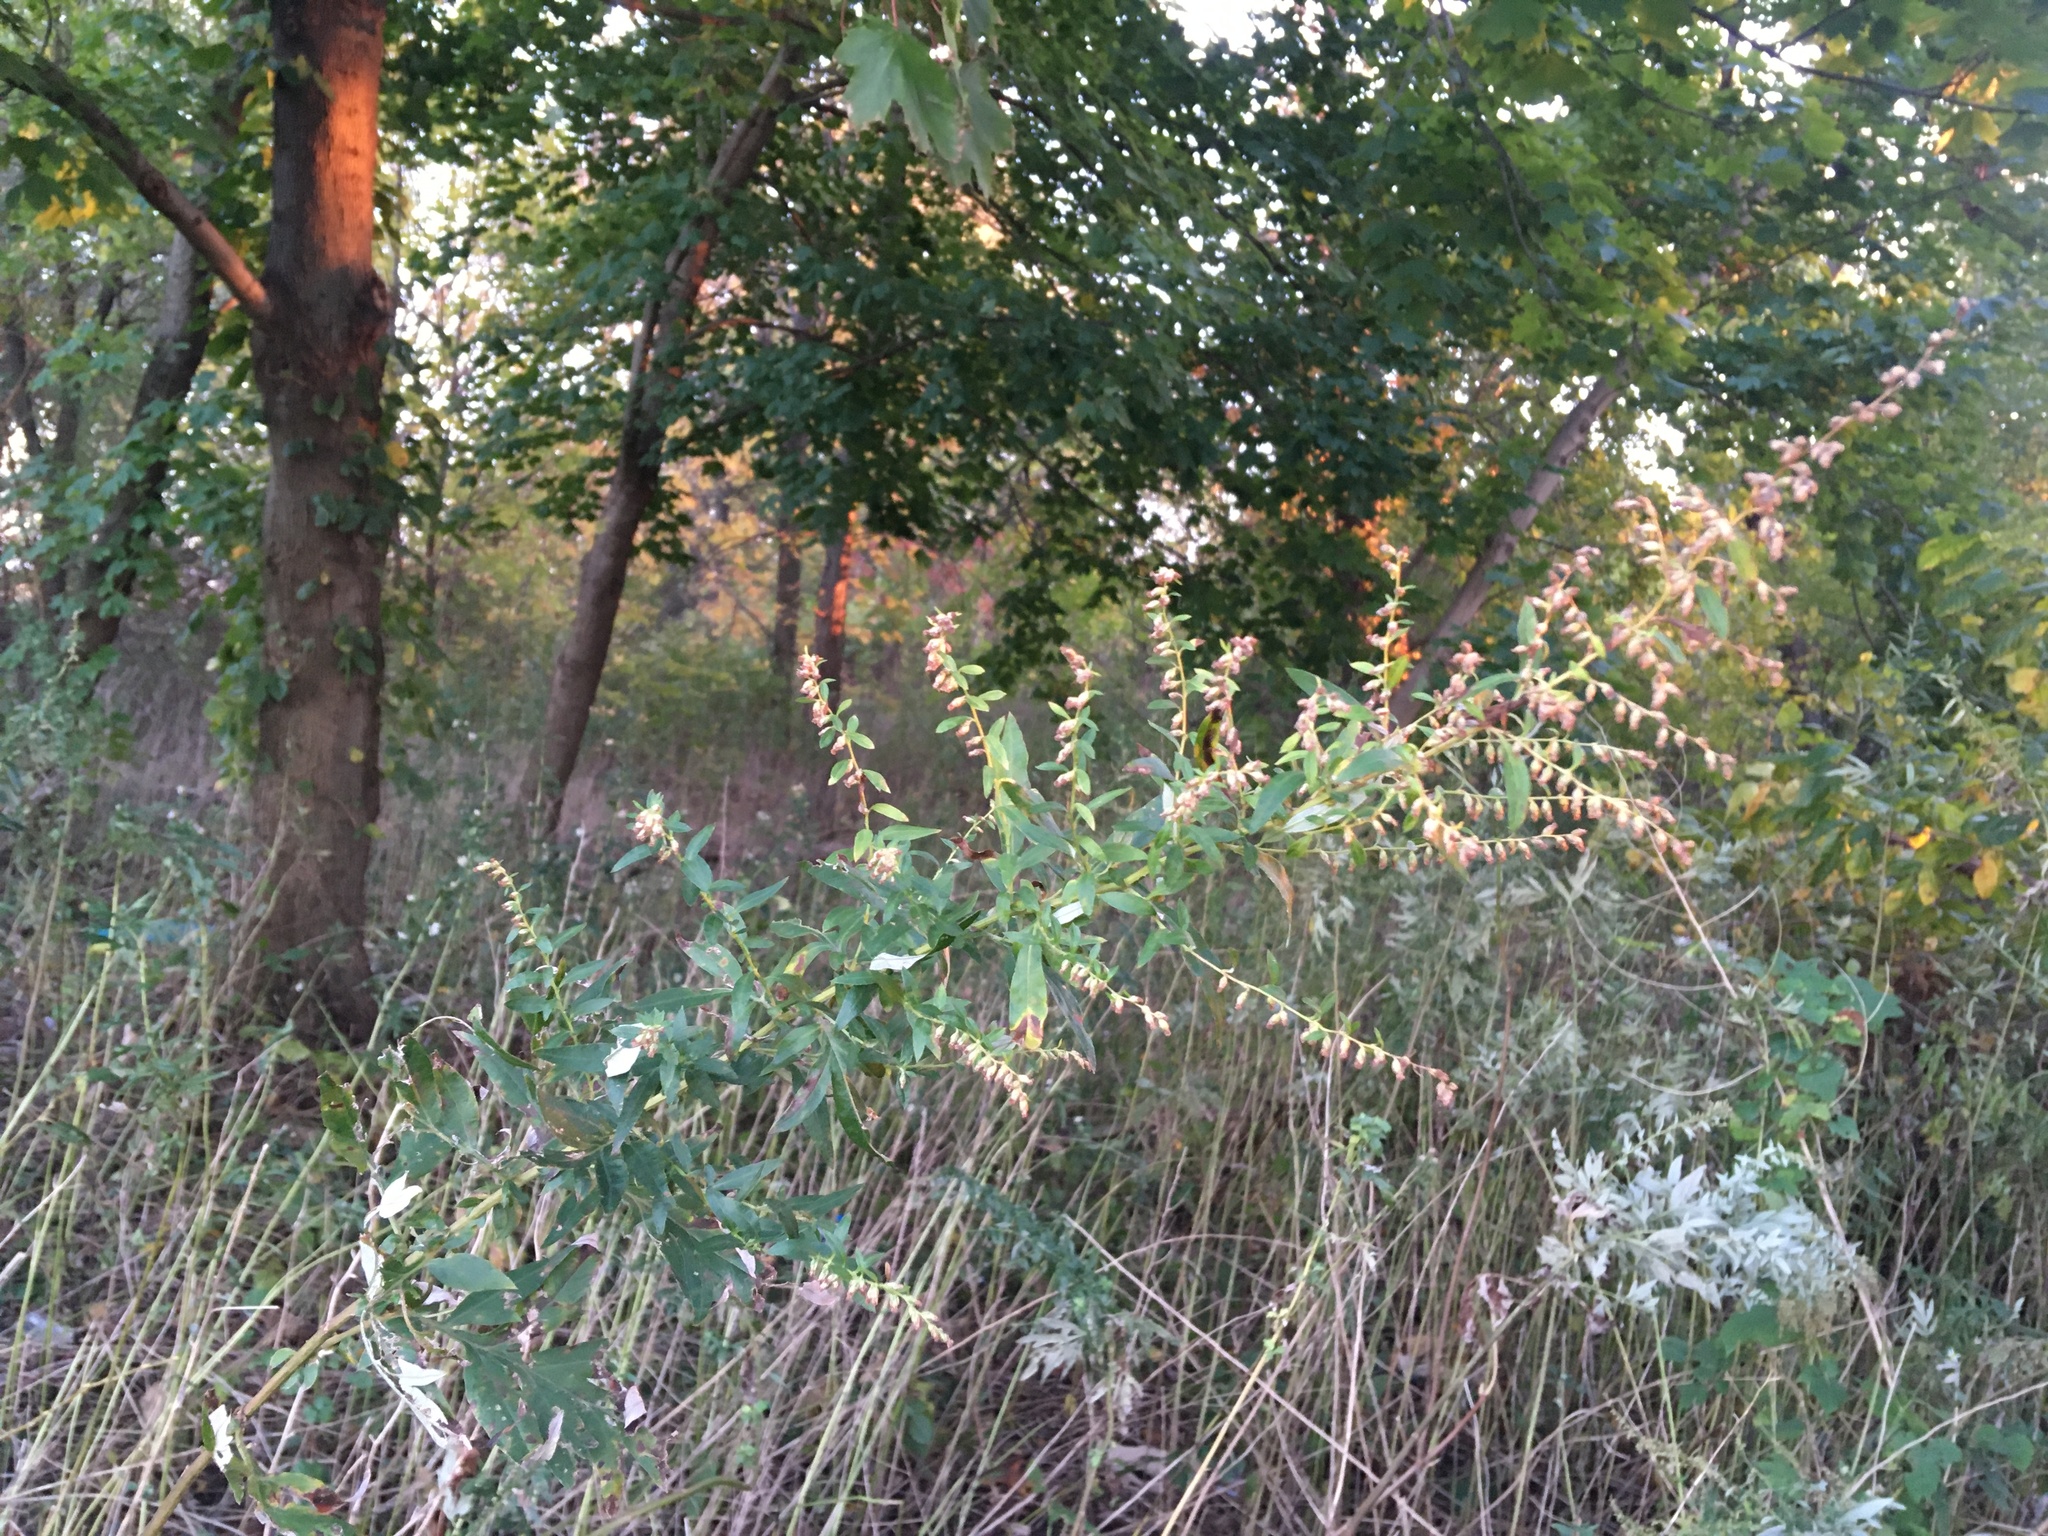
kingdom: Plantae
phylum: Tracheophyta
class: Magnoliopsida
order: Asterales
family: Asteraceae
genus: Artemisia
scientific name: Artemisia vulgaris
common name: Mugwort
